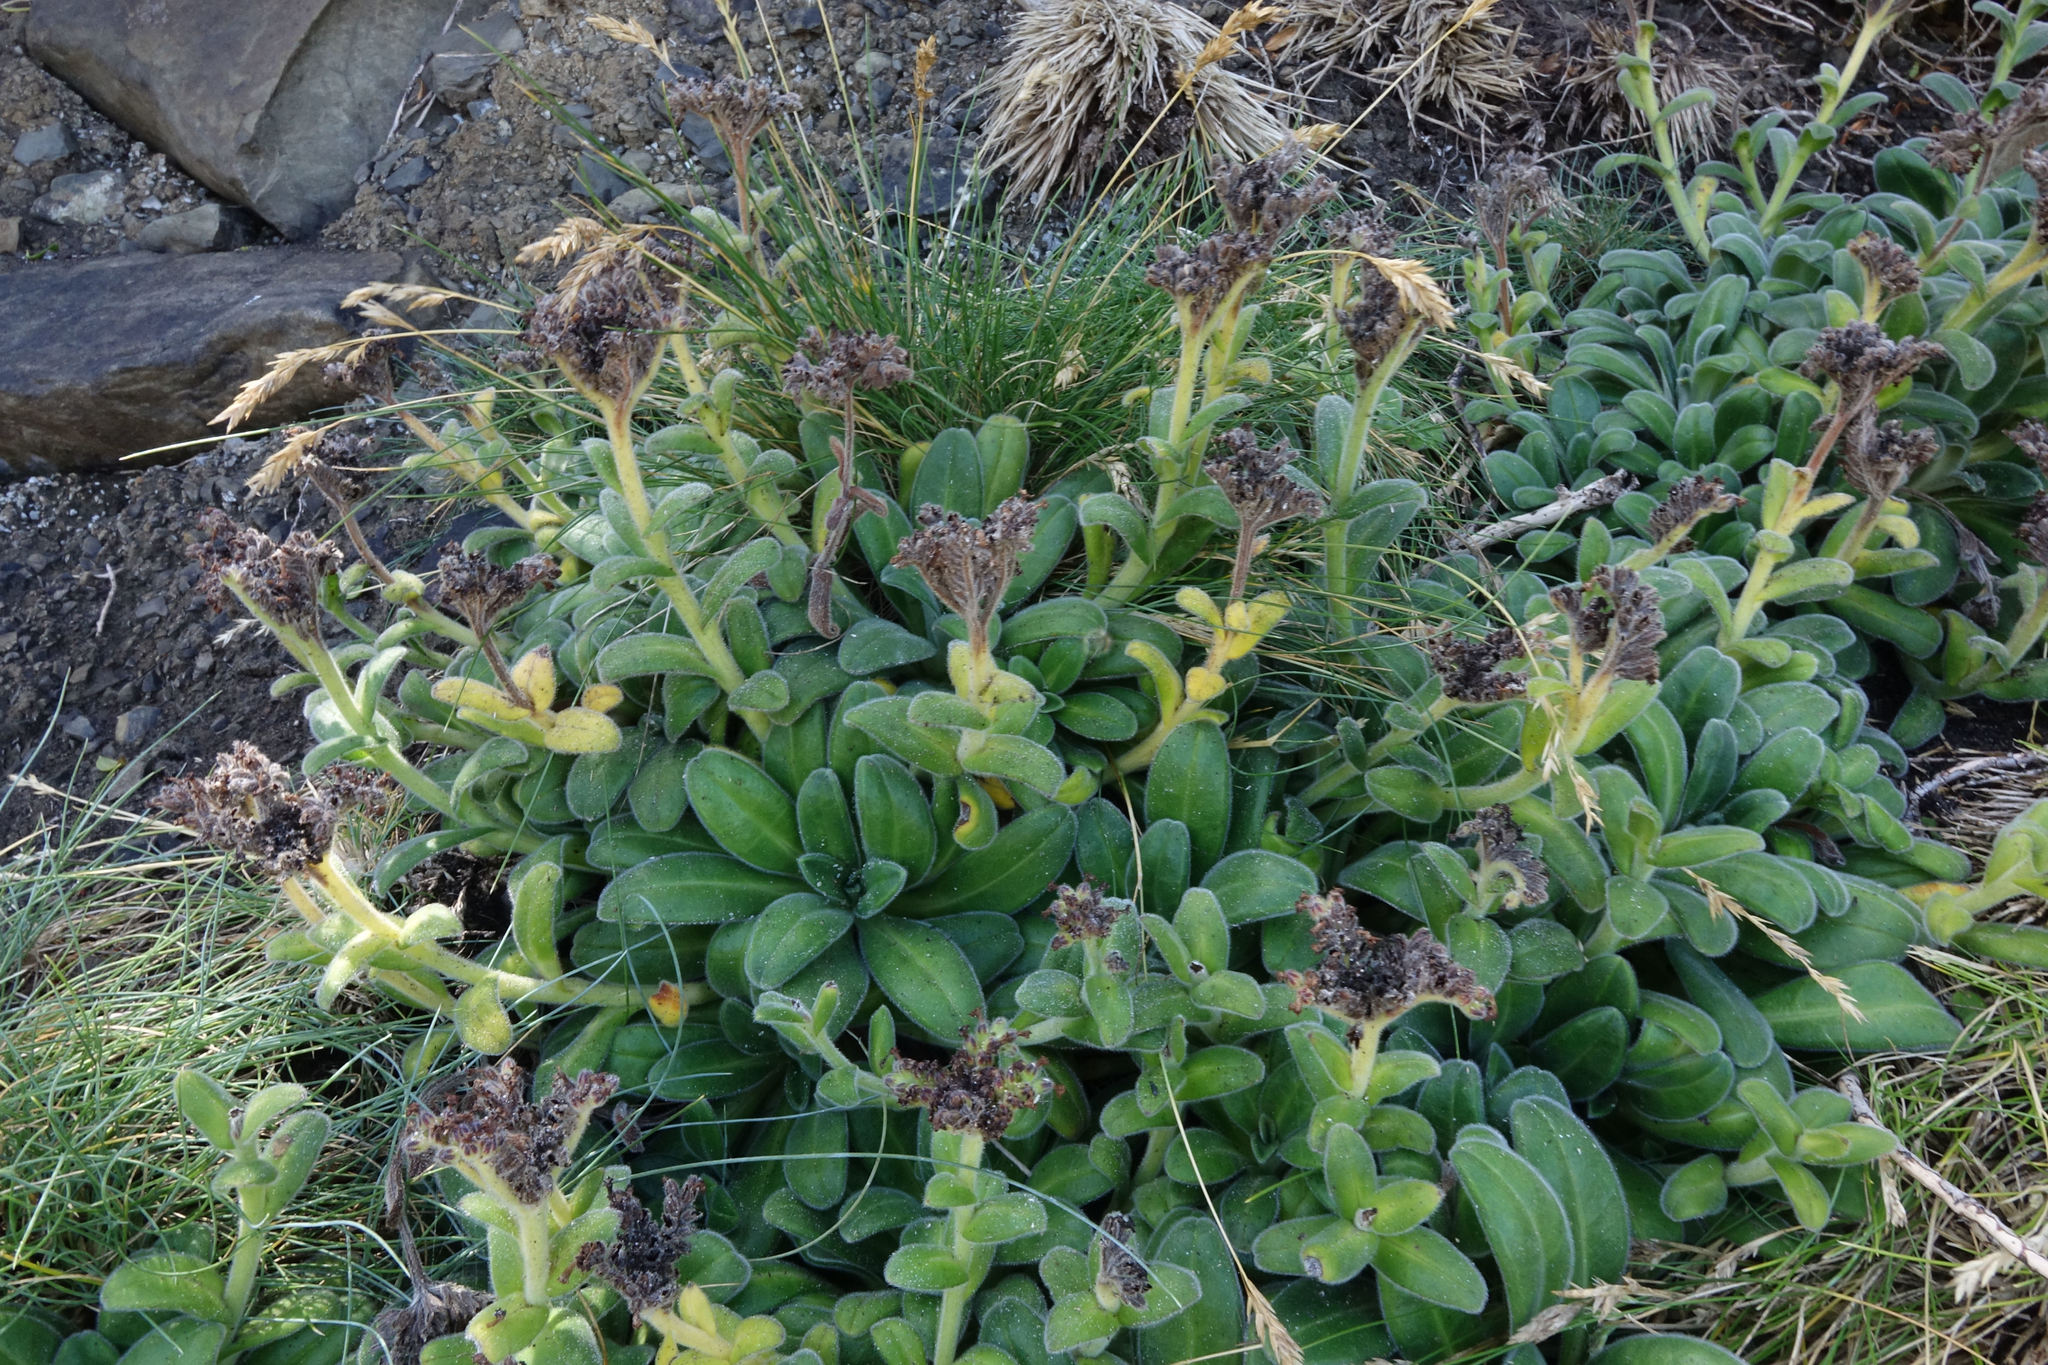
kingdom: Plantae
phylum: Tracheophyta
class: Magnoliopsida
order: Boraginales
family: Boraginaceae
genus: Myosotis
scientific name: Myosotis rakiura
